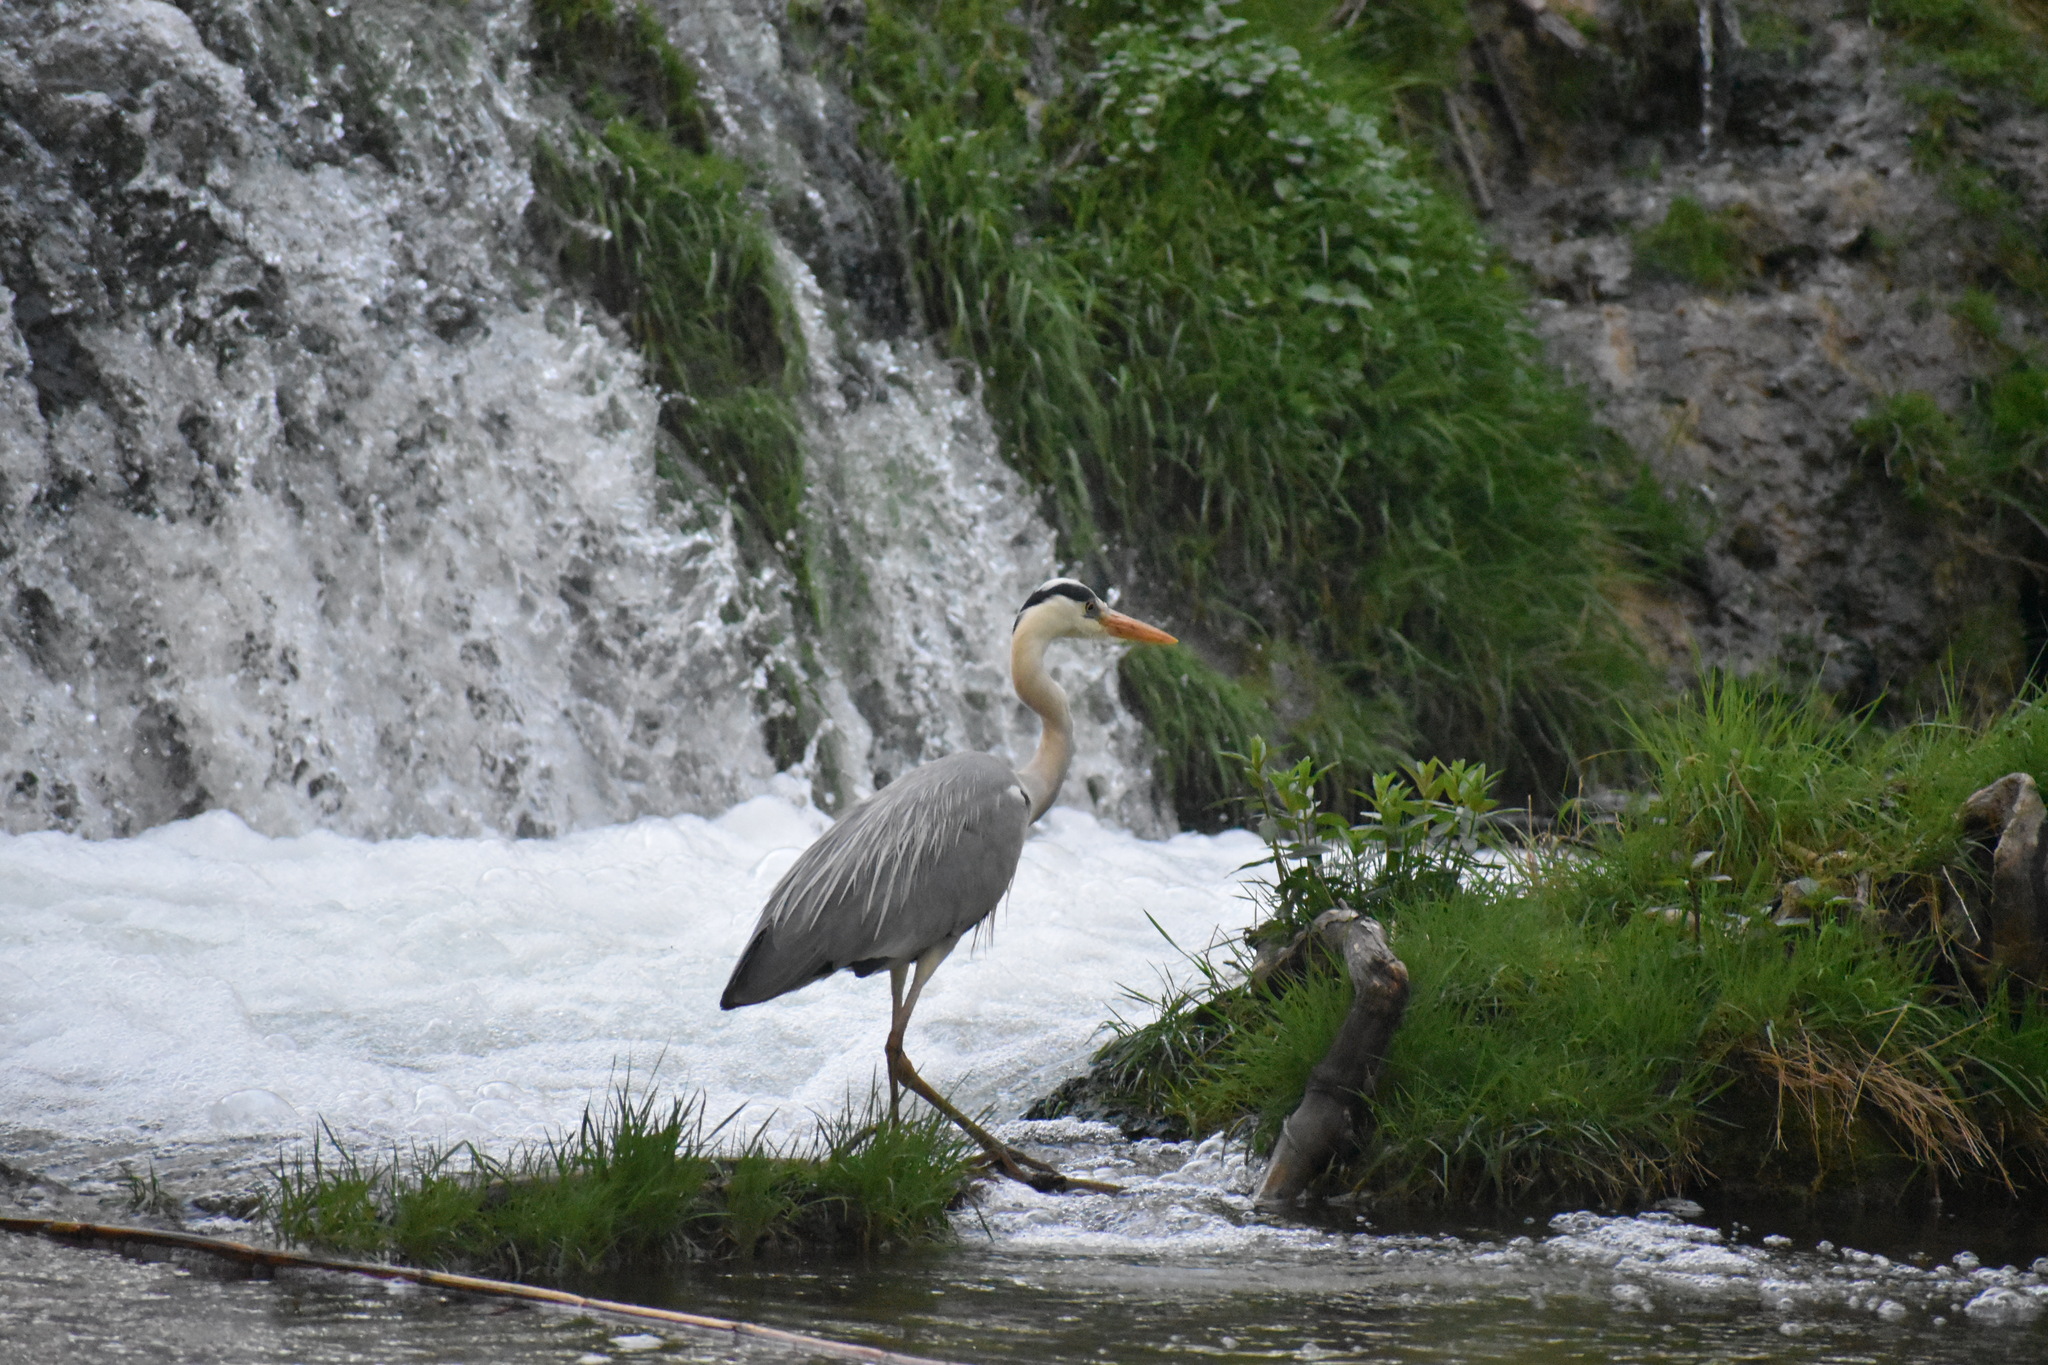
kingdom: Animalia
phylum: Chordata
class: Aves
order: Pelecaniformes
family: Ardeidae
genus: Ardea
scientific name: Ardea cinerea
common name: Grey heron
